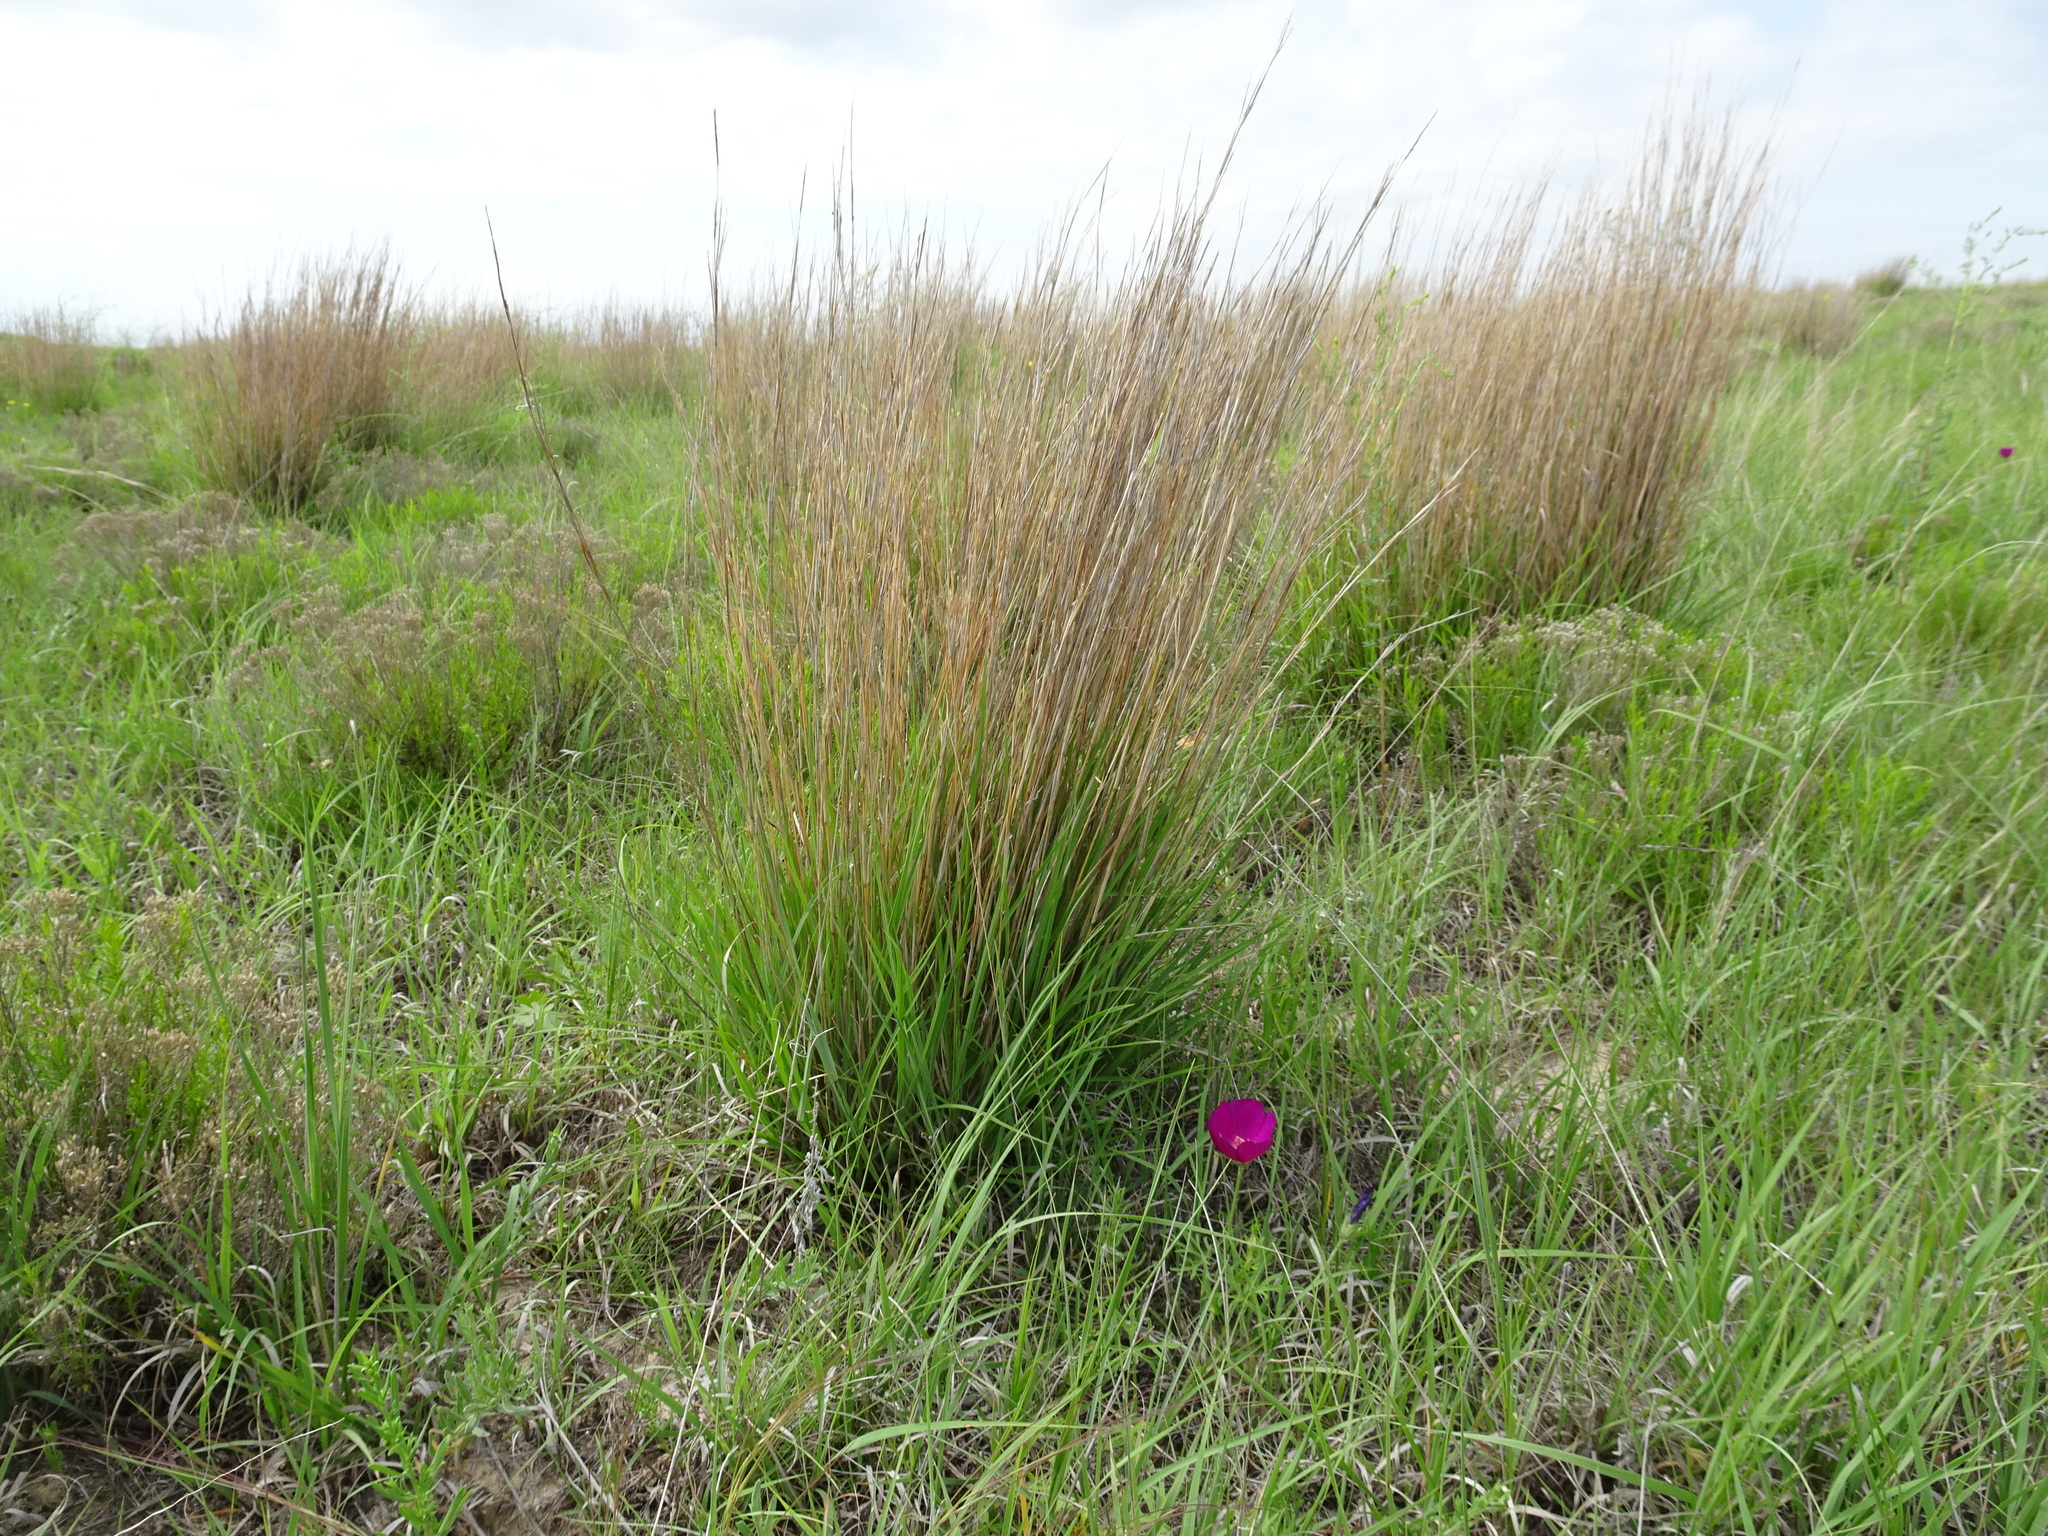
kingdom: Plantae
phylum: Tracheophyta
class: Liliopsida
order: Poales
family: Poaceae
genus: Schizachyrium
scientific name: Schizachyrium scoparium
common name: Little bluestem
